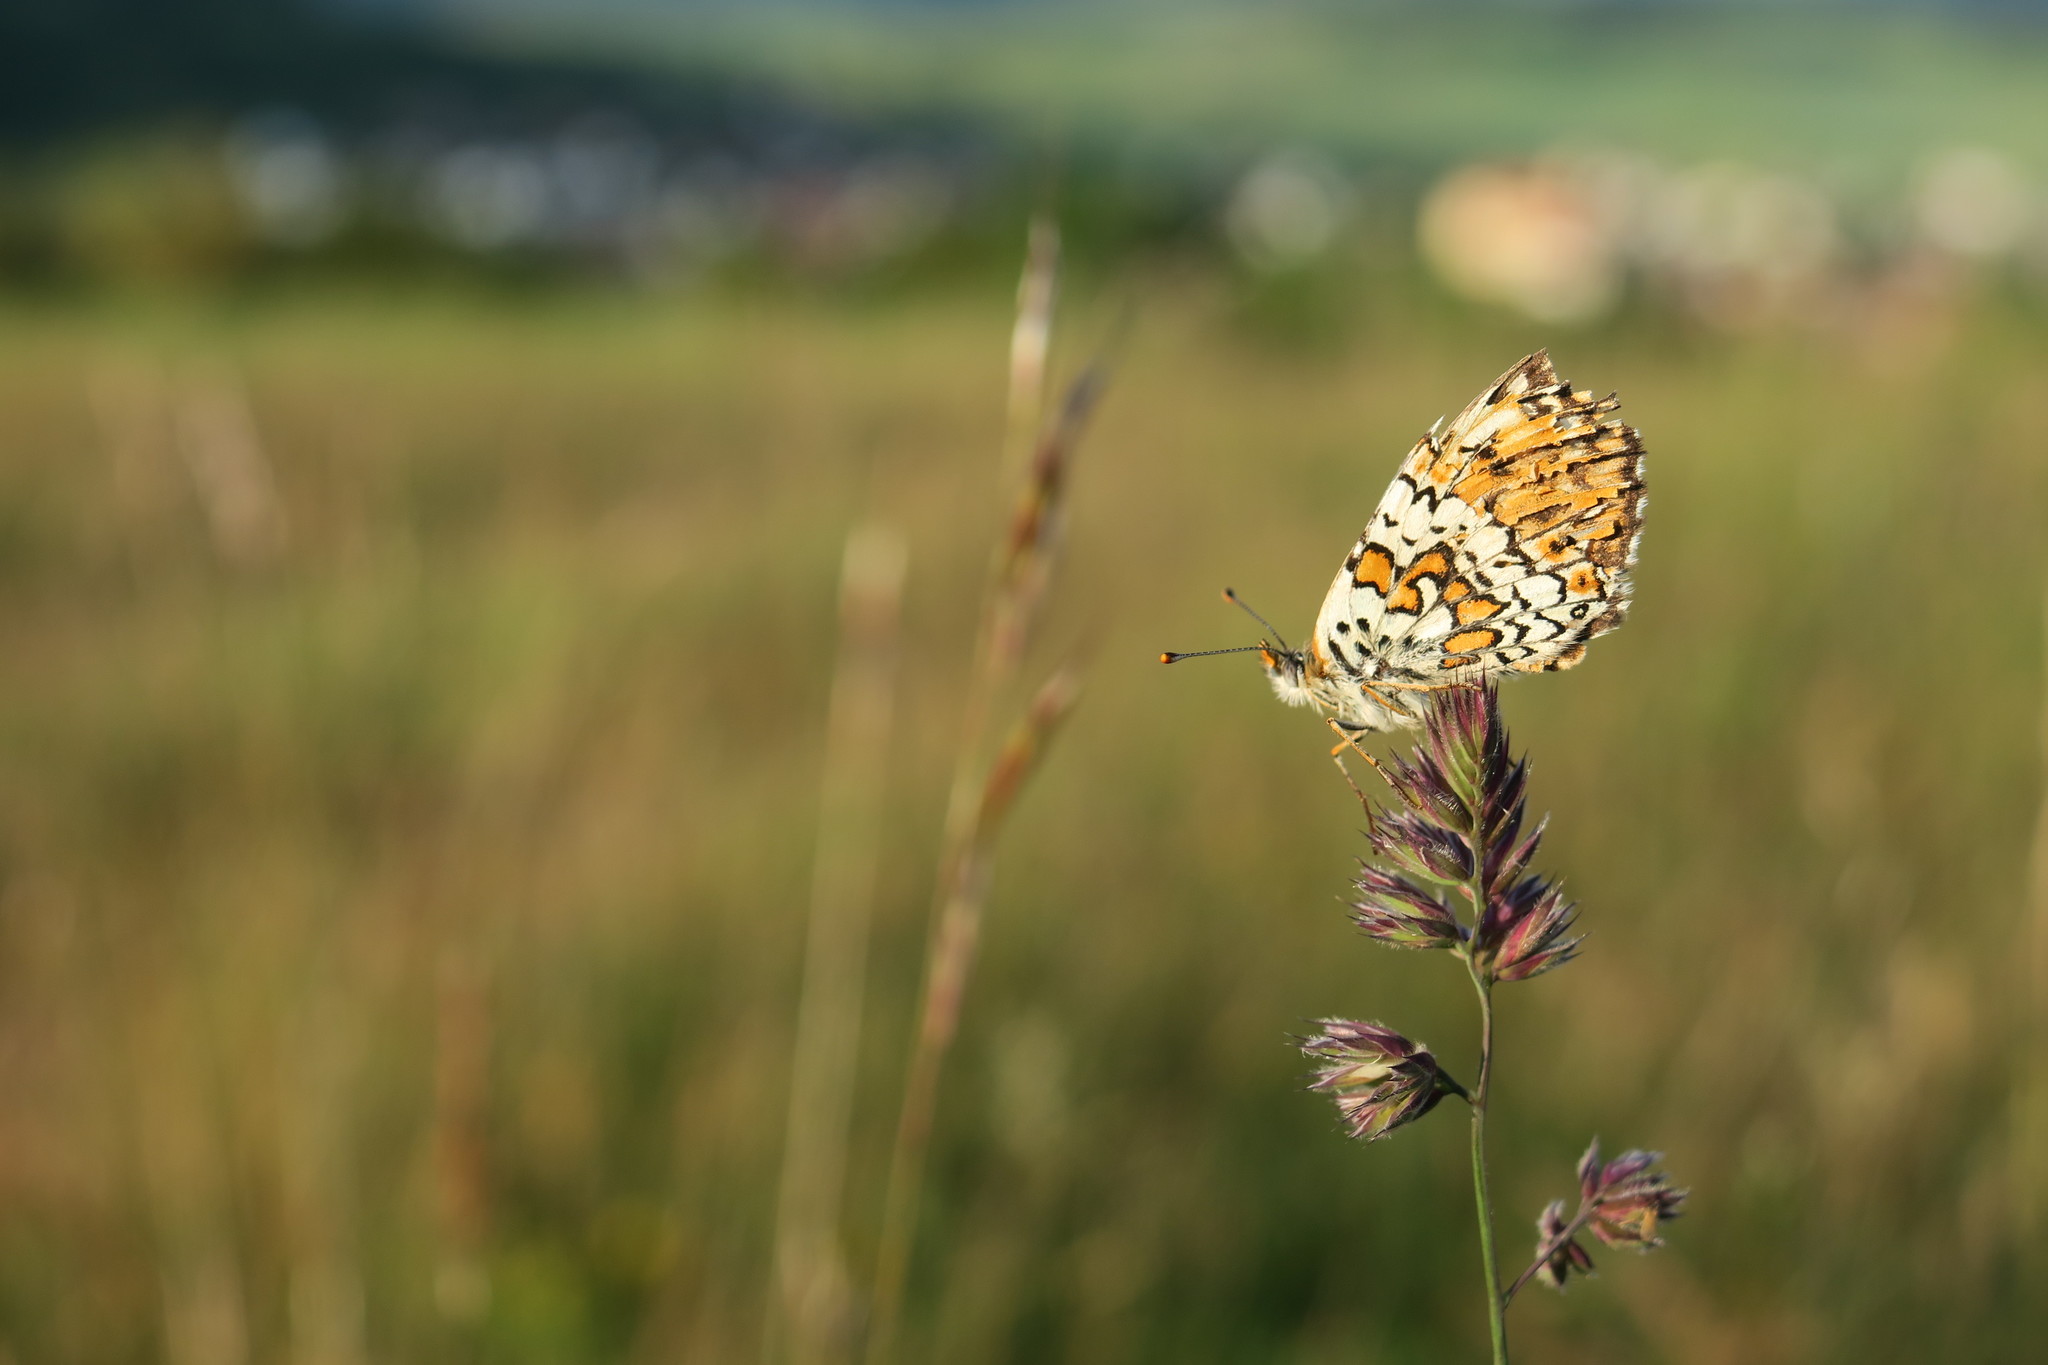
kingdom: Animalia
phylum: Arthropoda
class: Insecta
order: Lepidoptera
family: Nymphalidae
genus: Melitaea
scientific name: Melitaea cinxia
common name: Glanville fritillary
